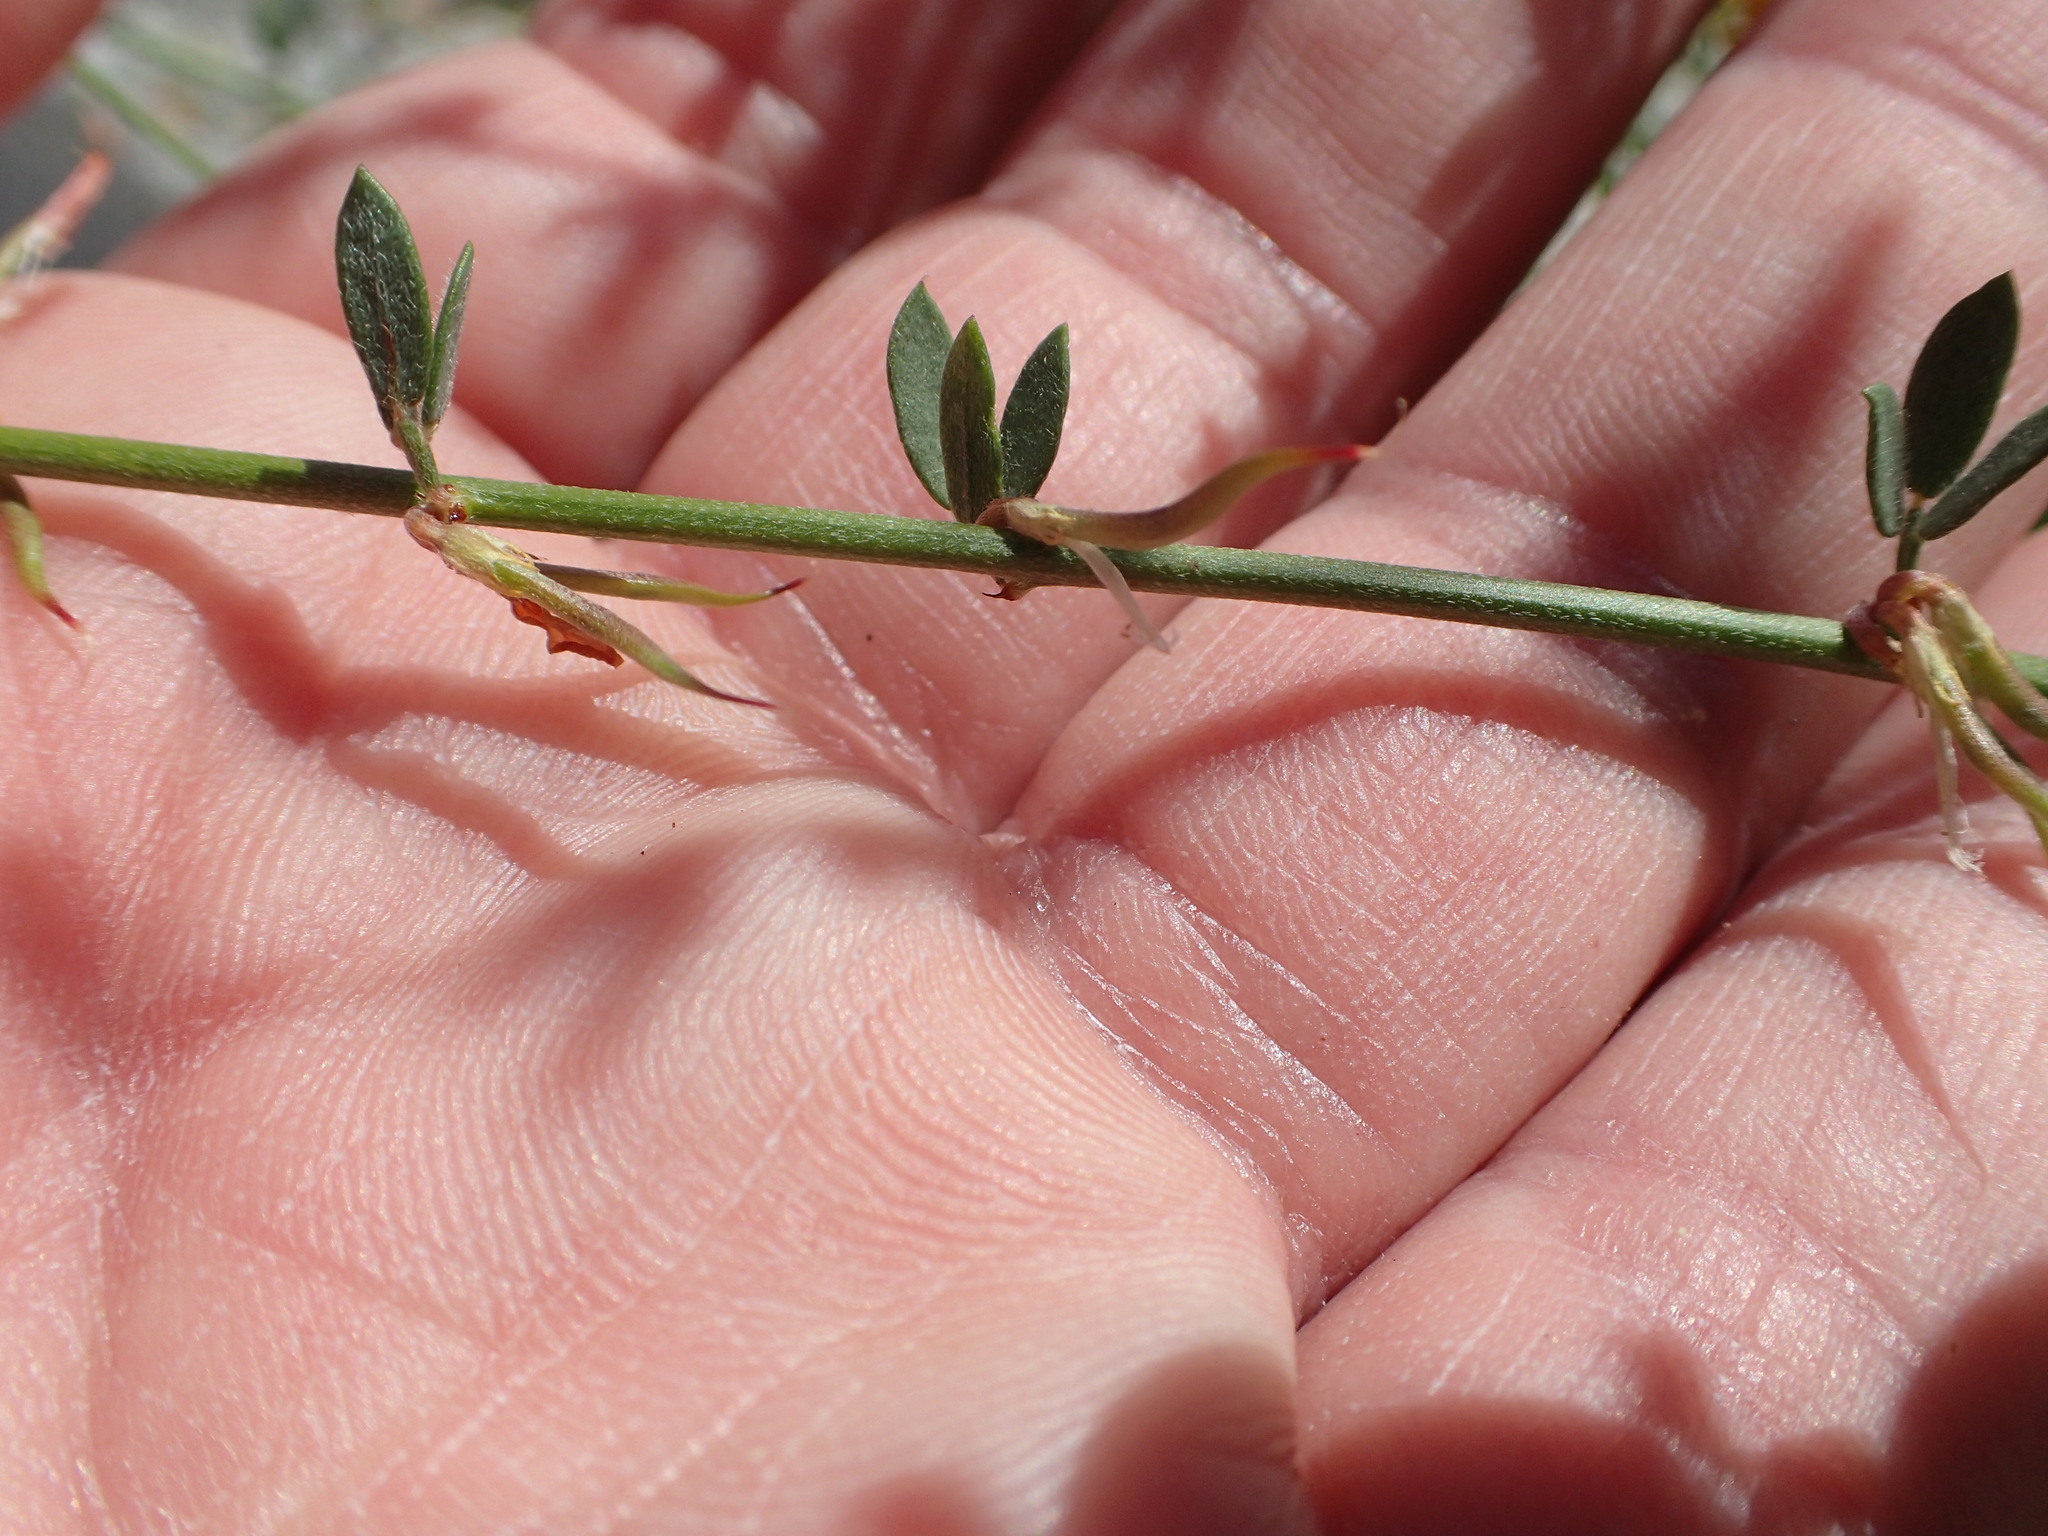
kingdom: Plantae
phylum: Tracheophyta
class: Magnoliopsida
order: Fabales
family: Fabaceae
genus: Acmispon
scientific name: Acmispon glaber
